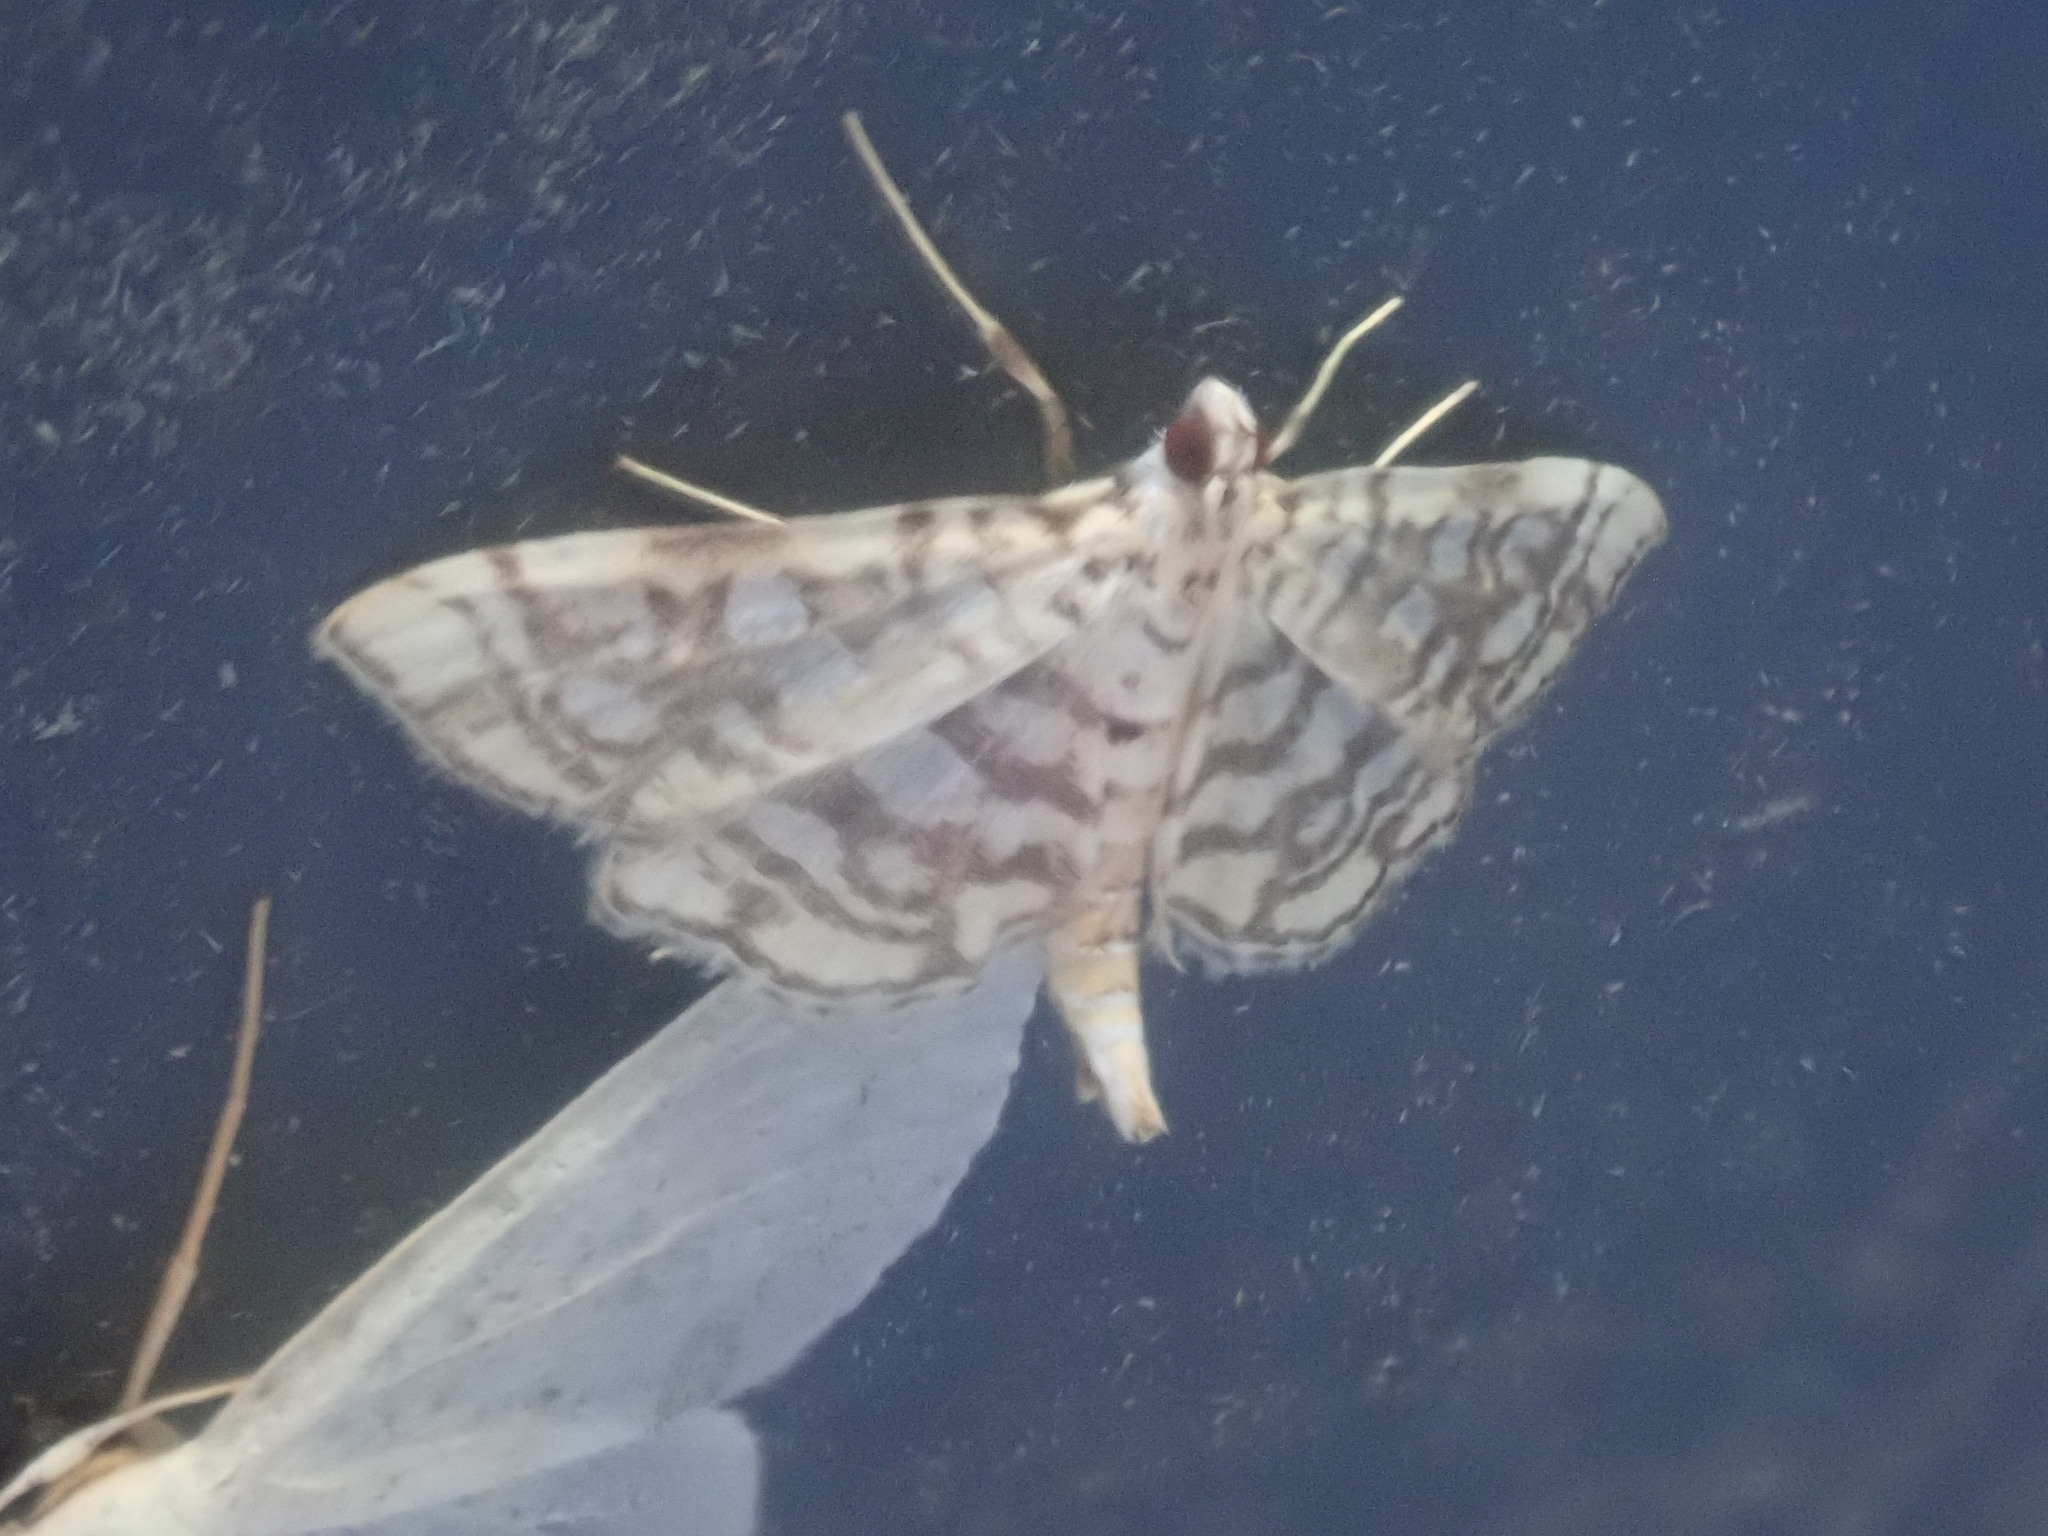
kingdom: Animalia
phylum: Arthropoda
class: Insecta
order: Lepidoptera
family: Crambidae
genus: Lygropia
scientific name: Lygropia rivulalis
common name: Bog lygropia moth
